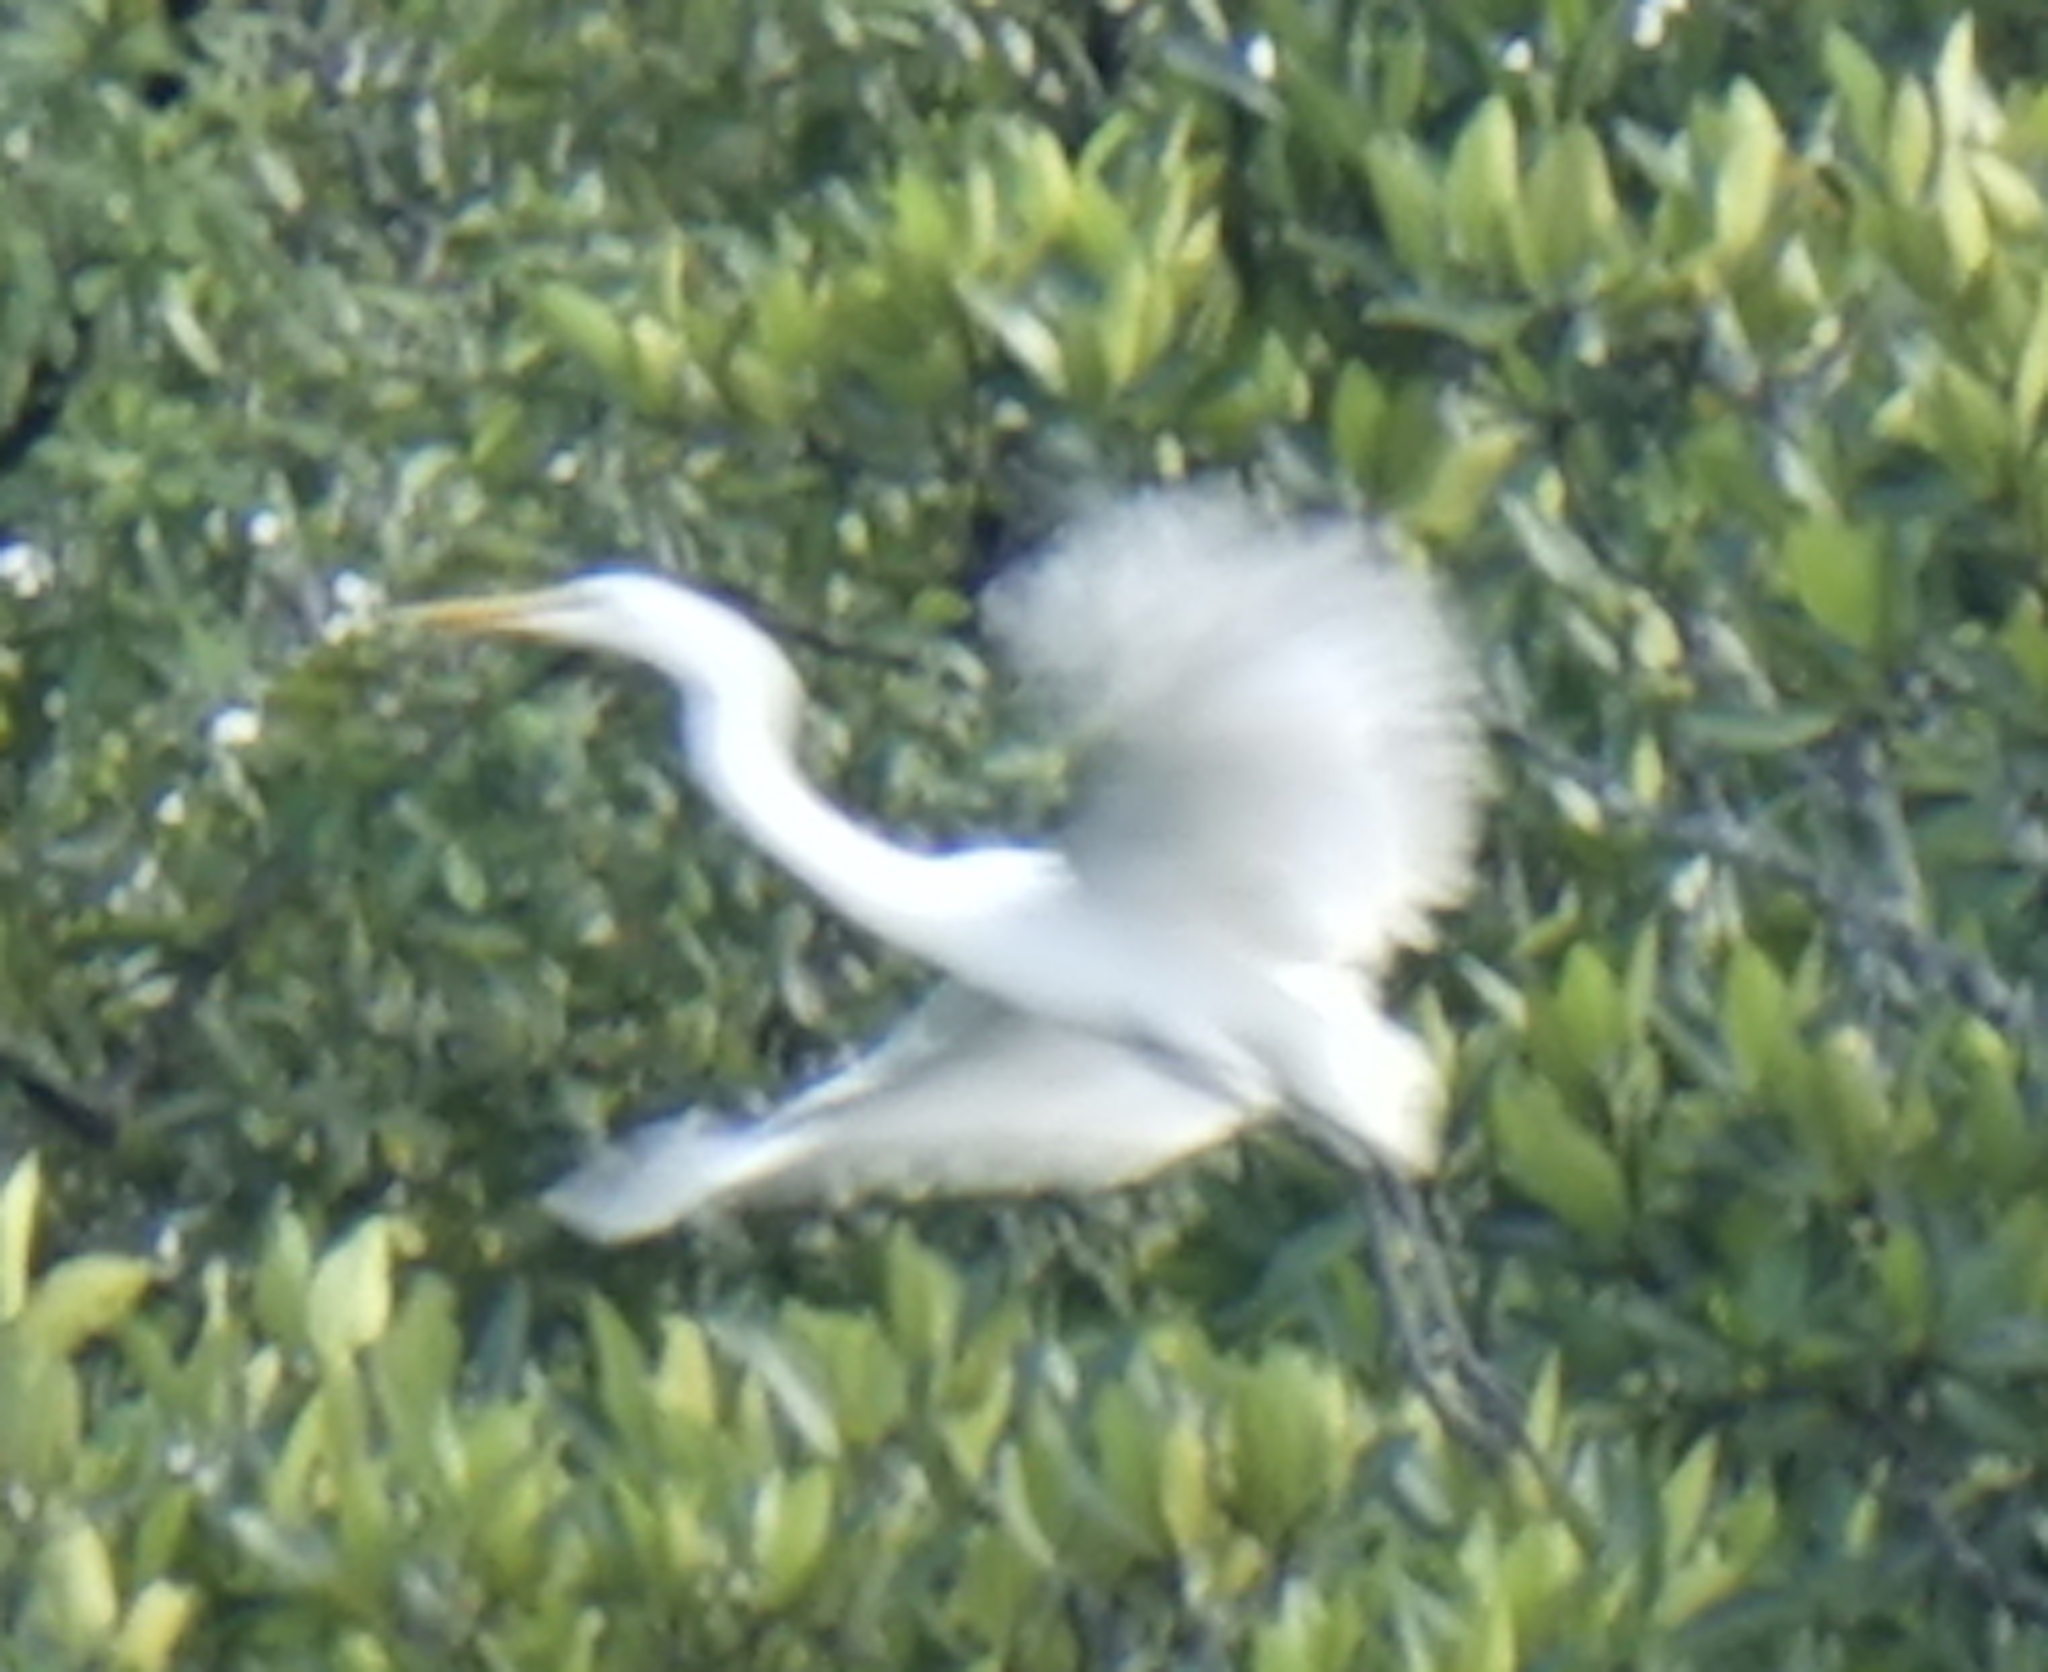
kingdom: Animalia
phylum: Chordata
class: Aves
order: Pelecaniformes
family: Ardeidae
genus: Egretta
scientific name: Egretta intermedia
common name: Intermediate egret
